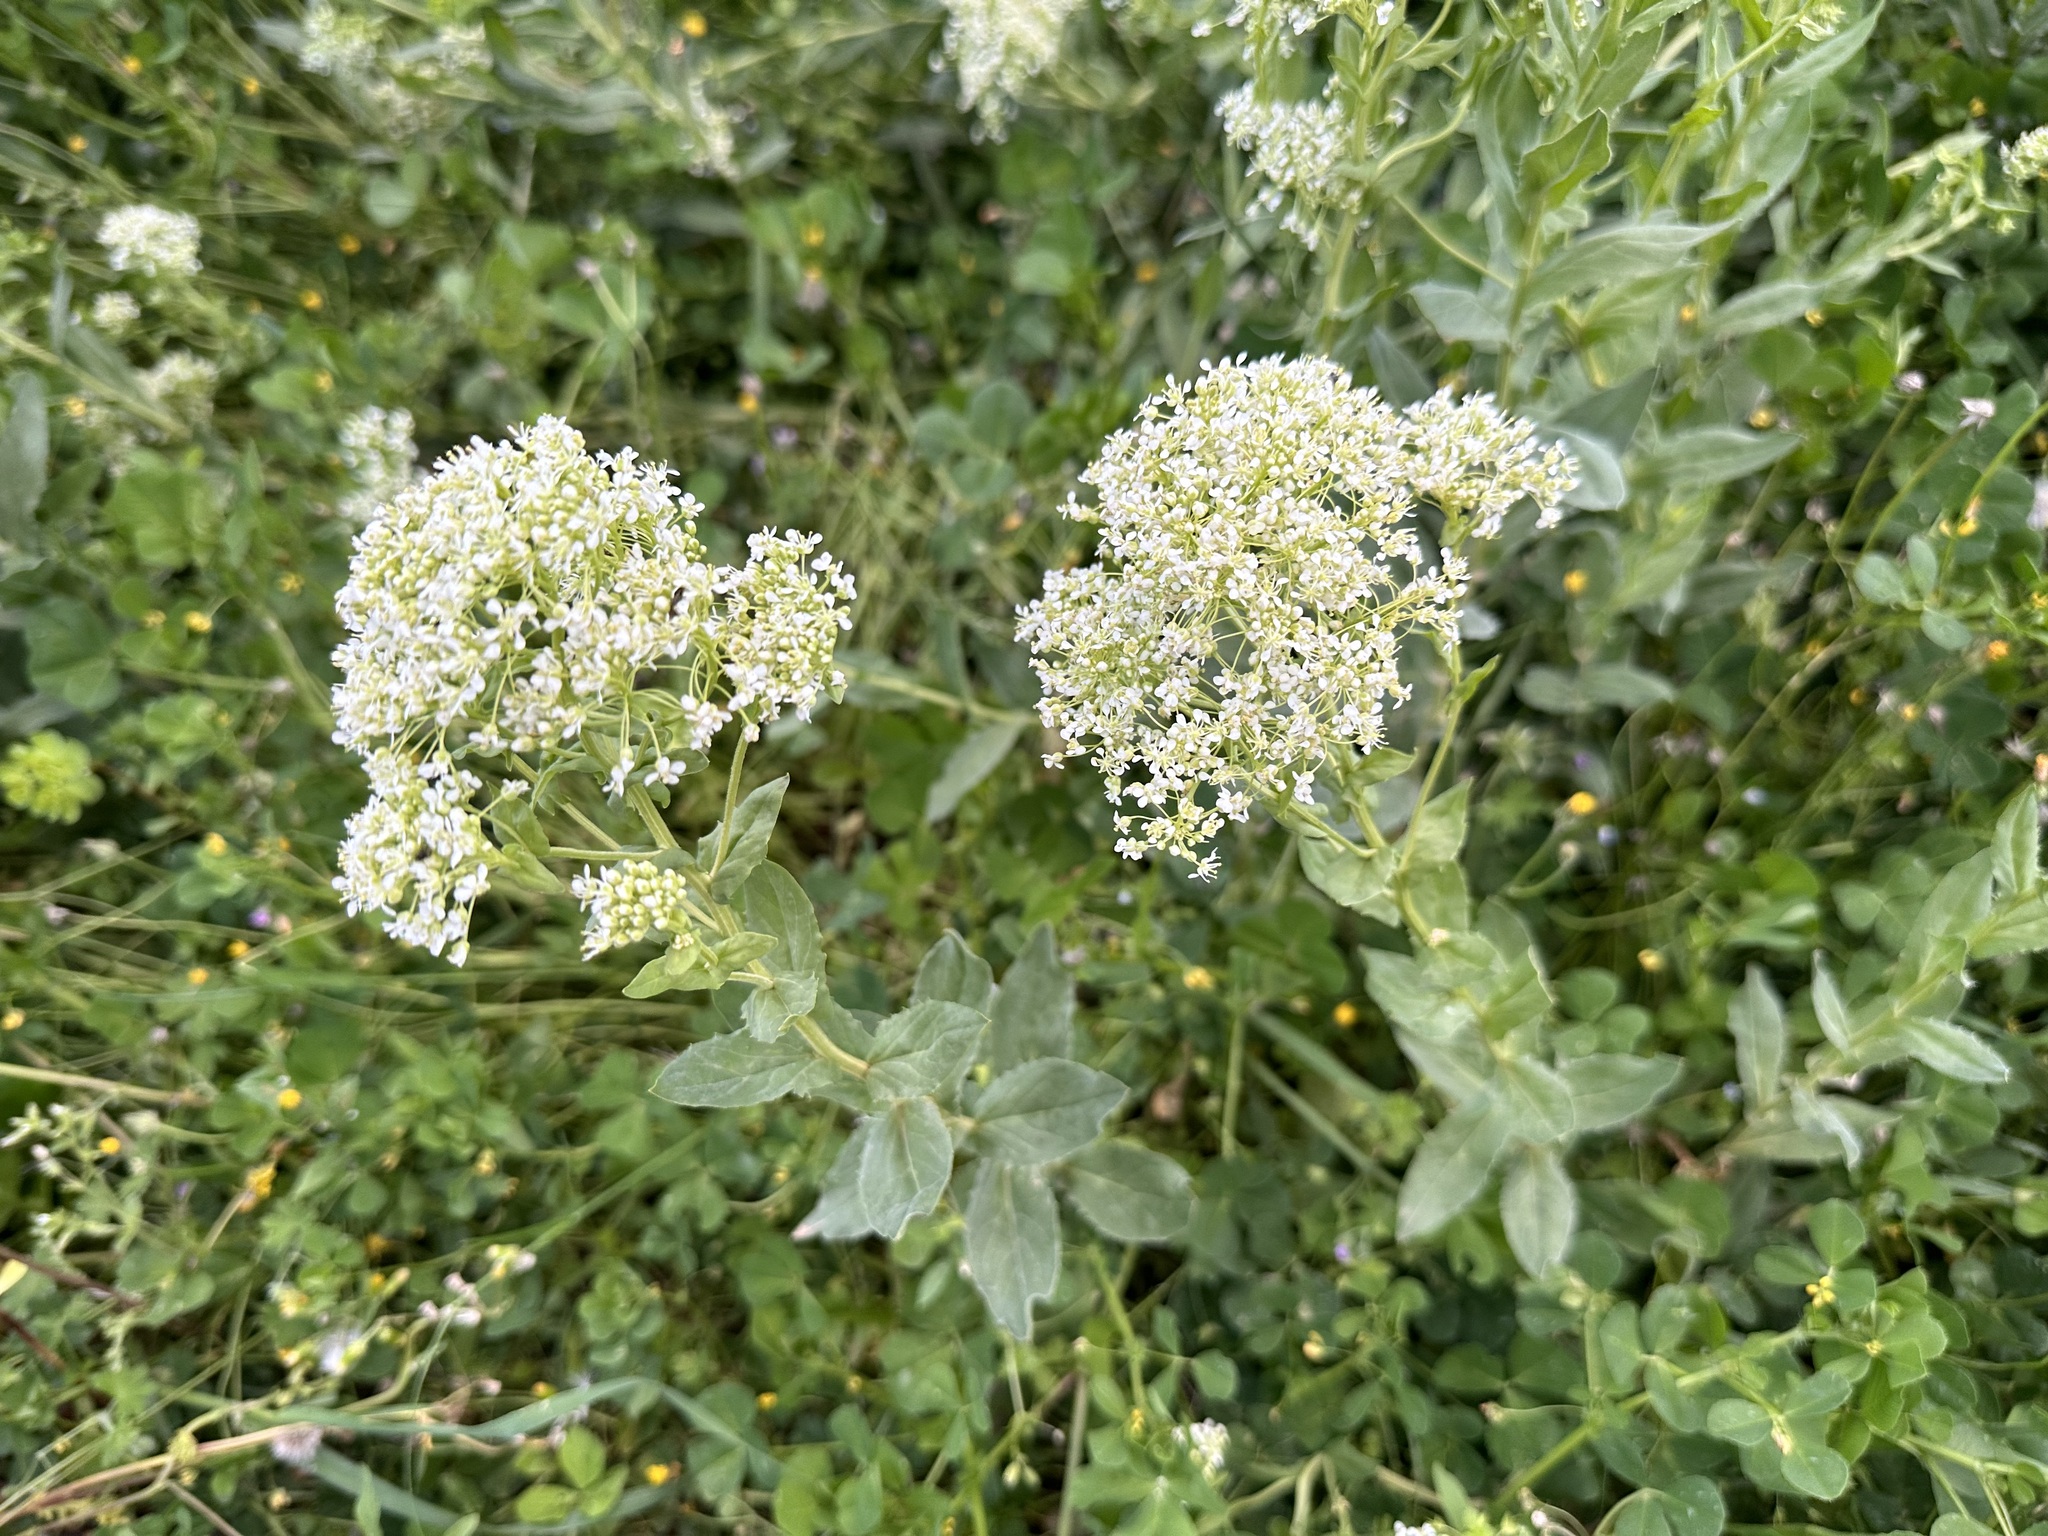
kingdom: Plantae
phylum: Tracheophyta
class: Magnoliopsida
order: Brassicales
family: Brassicaceae
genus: Lepidium
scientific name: Lepidium draba
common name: Hoary cress
